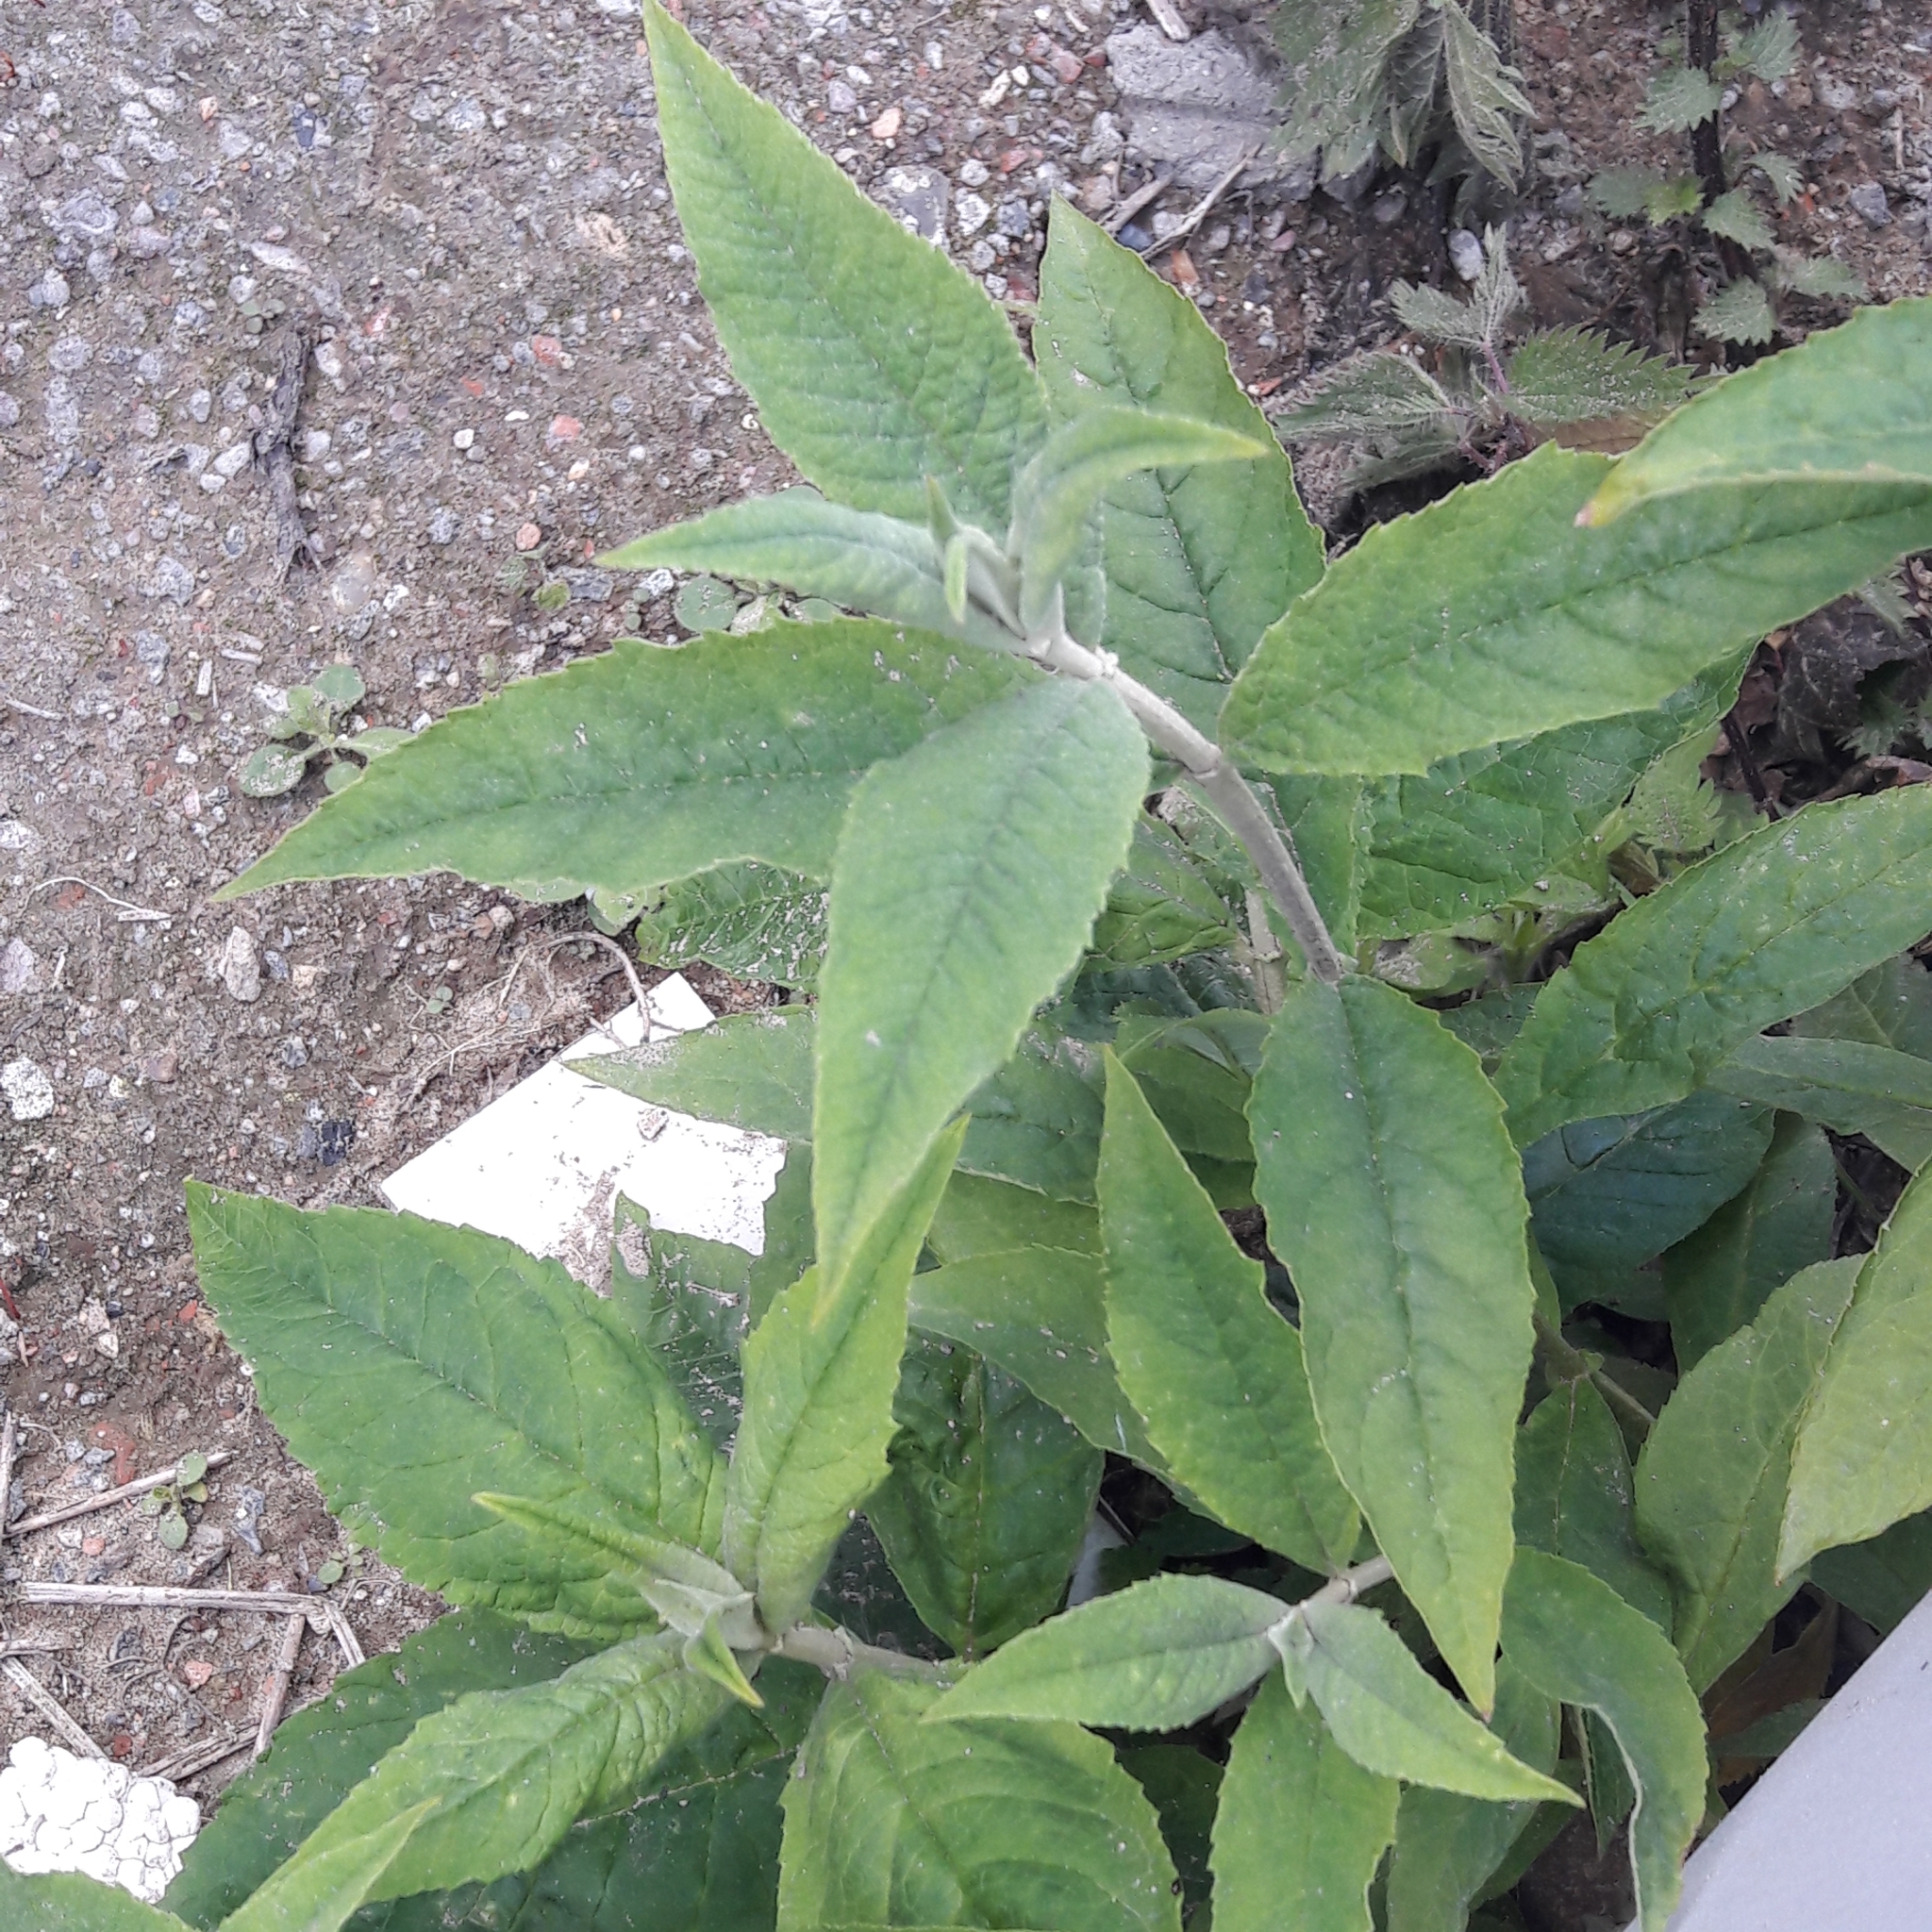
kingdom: Plantae
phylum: Tracheophyta
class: Magnoliopsida
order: Lamiales
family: Scrophulariaceae
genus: Buddleja
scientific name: Buddleja davidii
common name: Butterfly-bush
